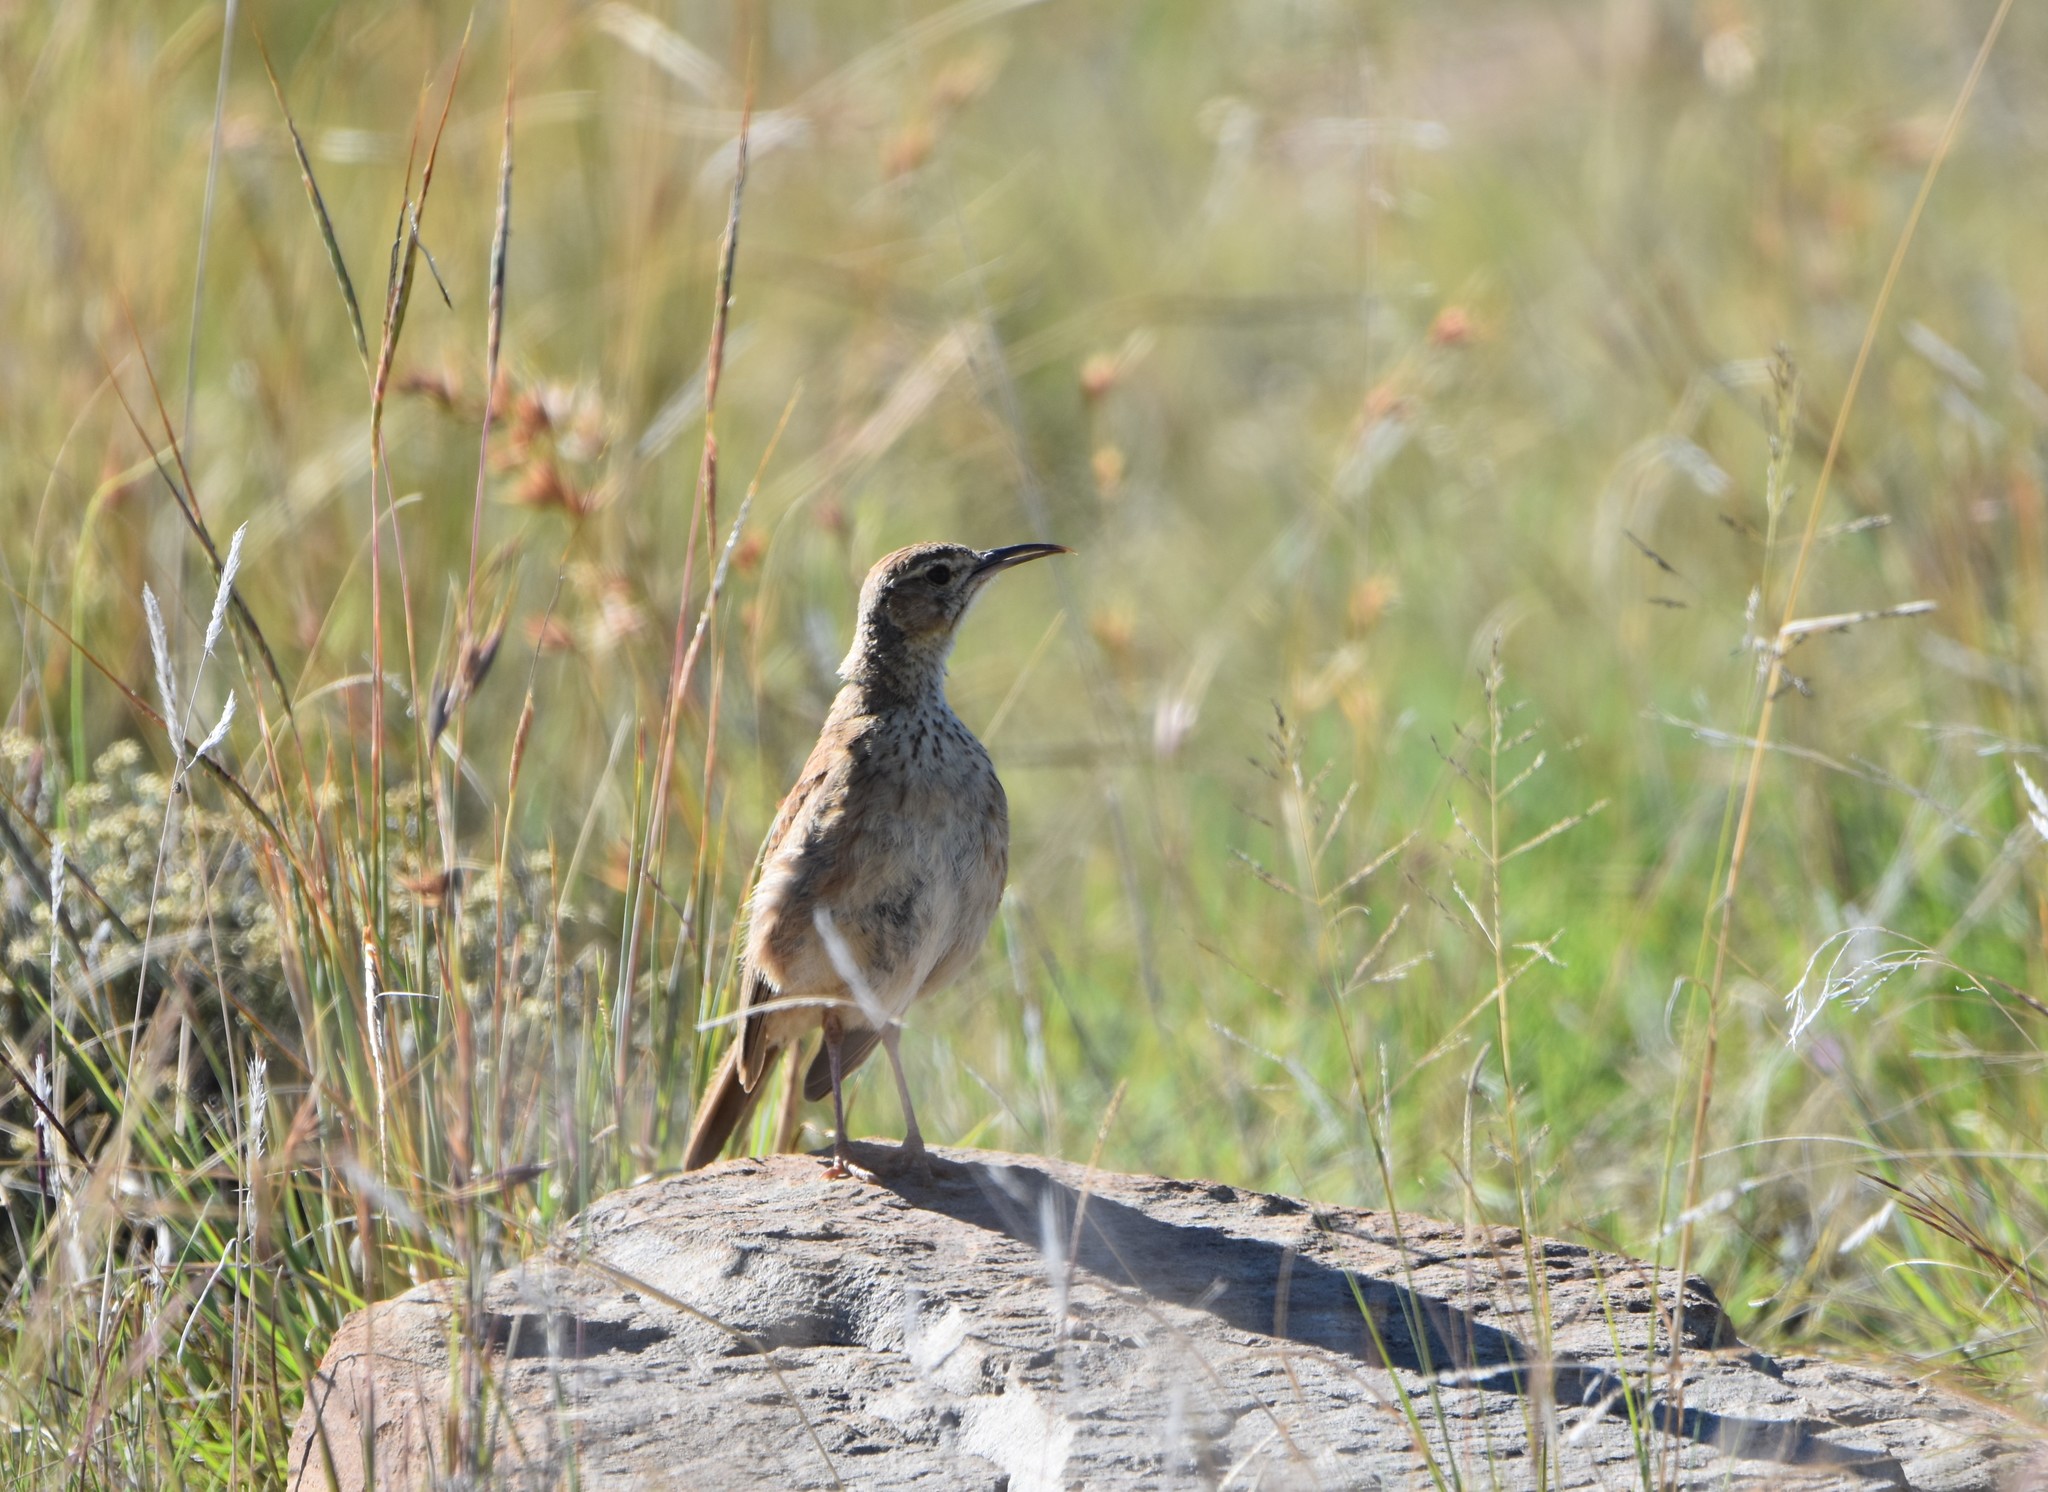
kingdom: Animalia
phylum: Chordata
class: Aves
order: Passeriformes
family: Alaudidae
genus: Certhilauda
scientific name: Certhilauda subcoronata
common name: Karoo long-billed lark
